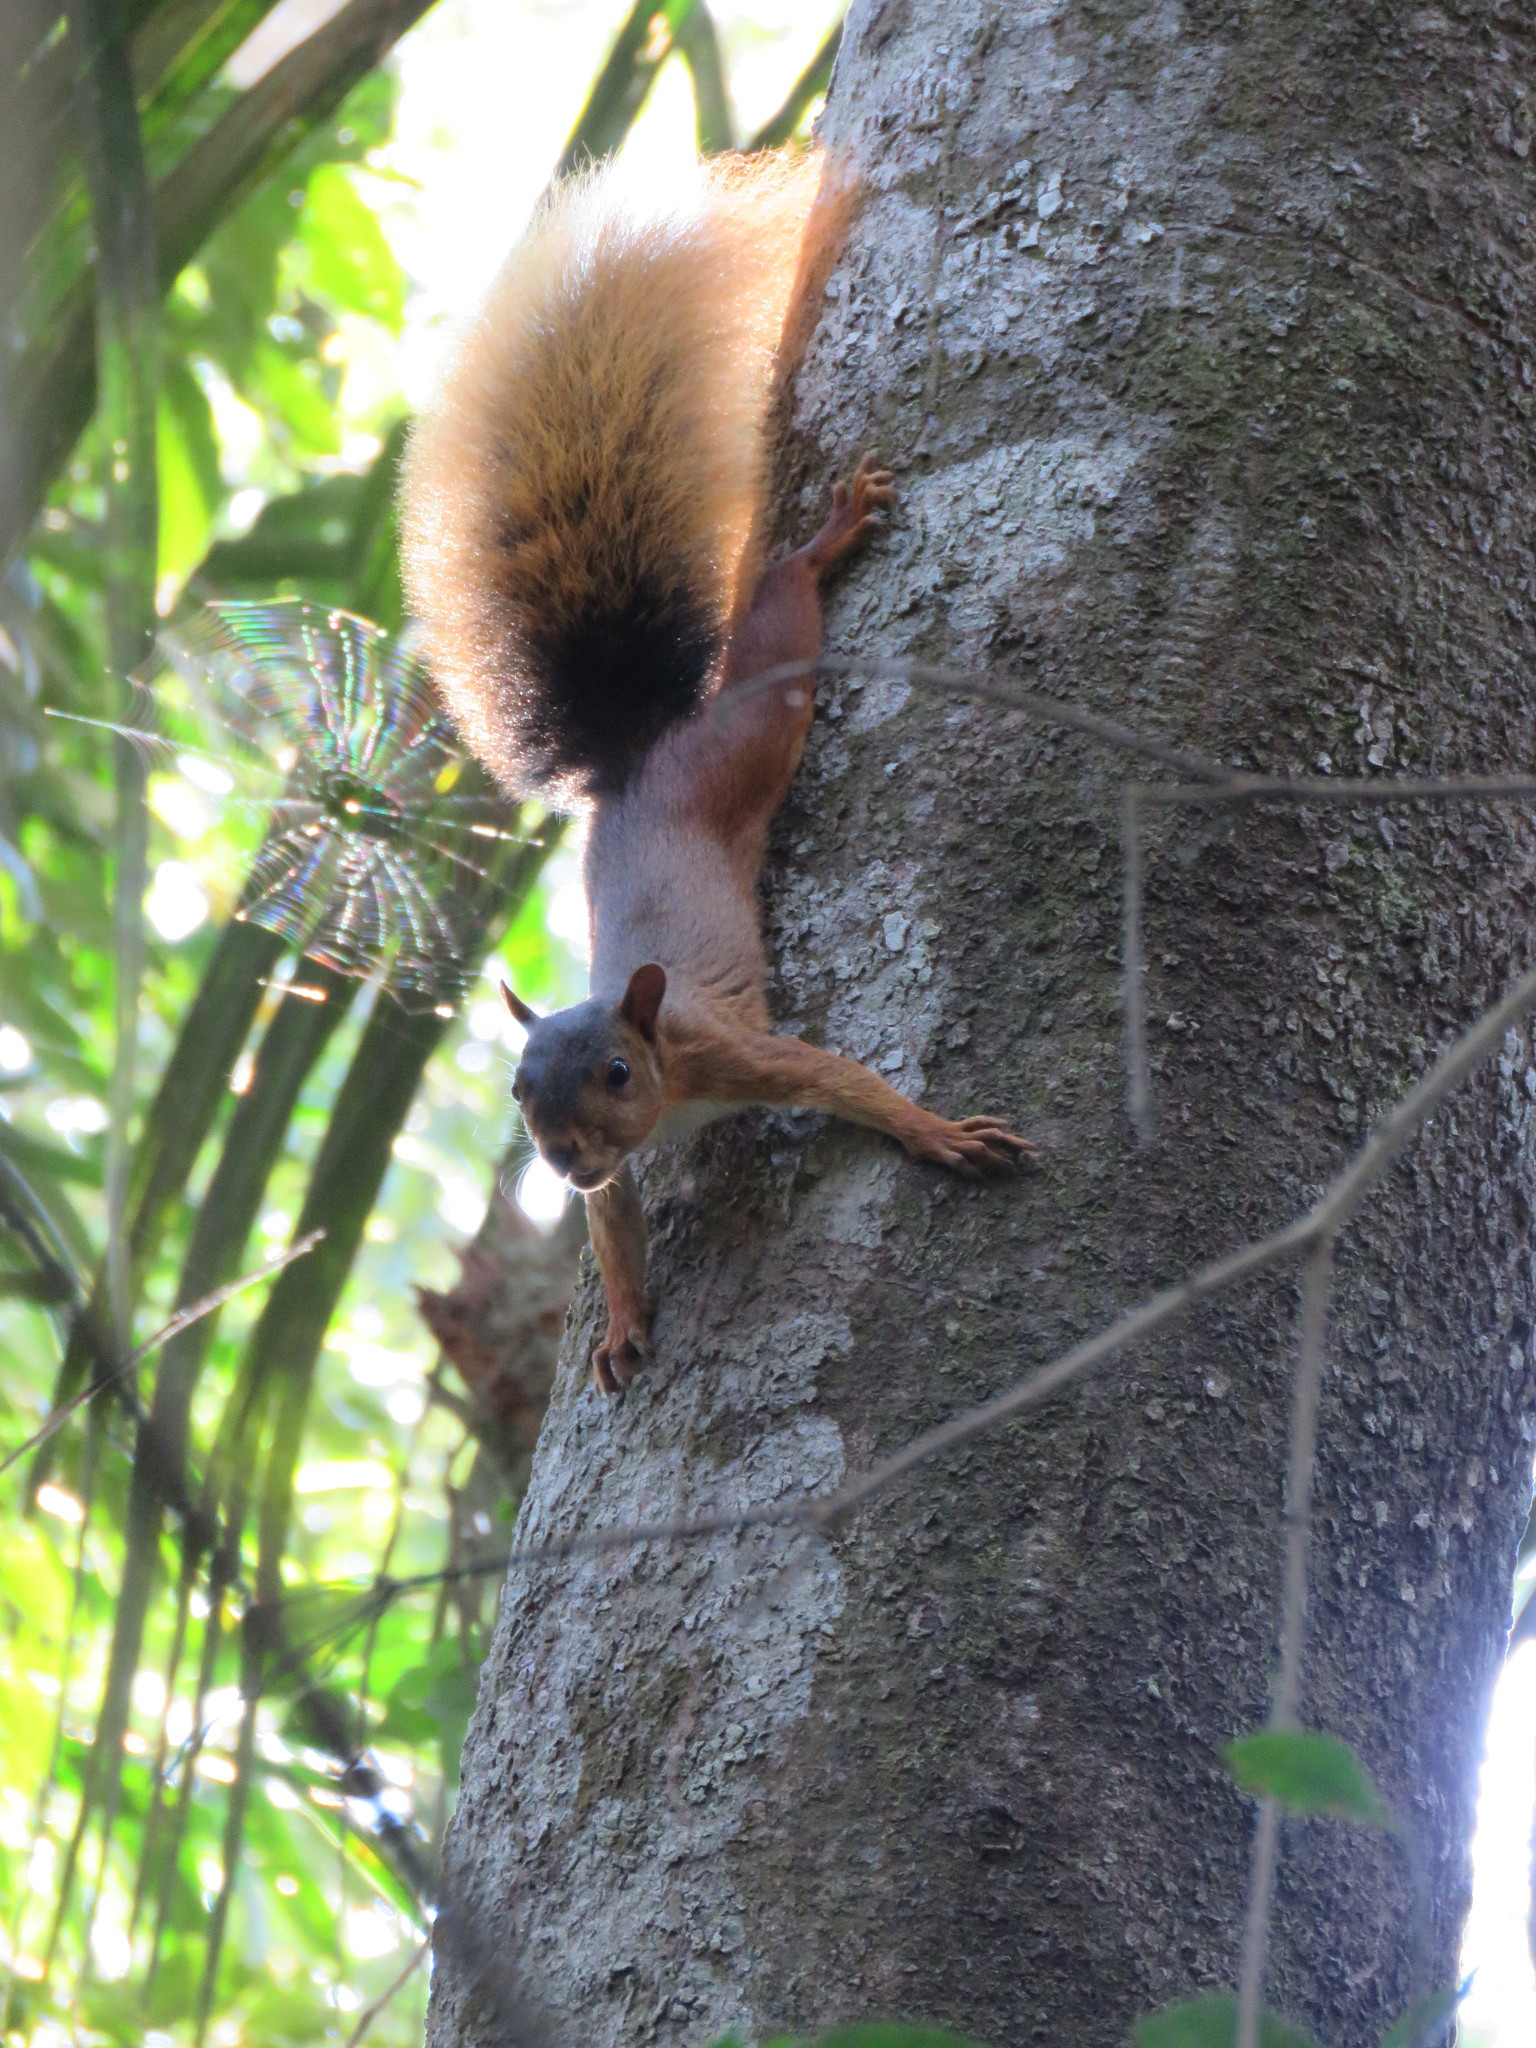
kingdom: Animalia
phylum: Chordata
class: Mammalia
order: Rodentia
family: Sciuridae
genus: Sciurus
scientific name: Sciurus spadiceus
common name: Southern amazon red squirrel
